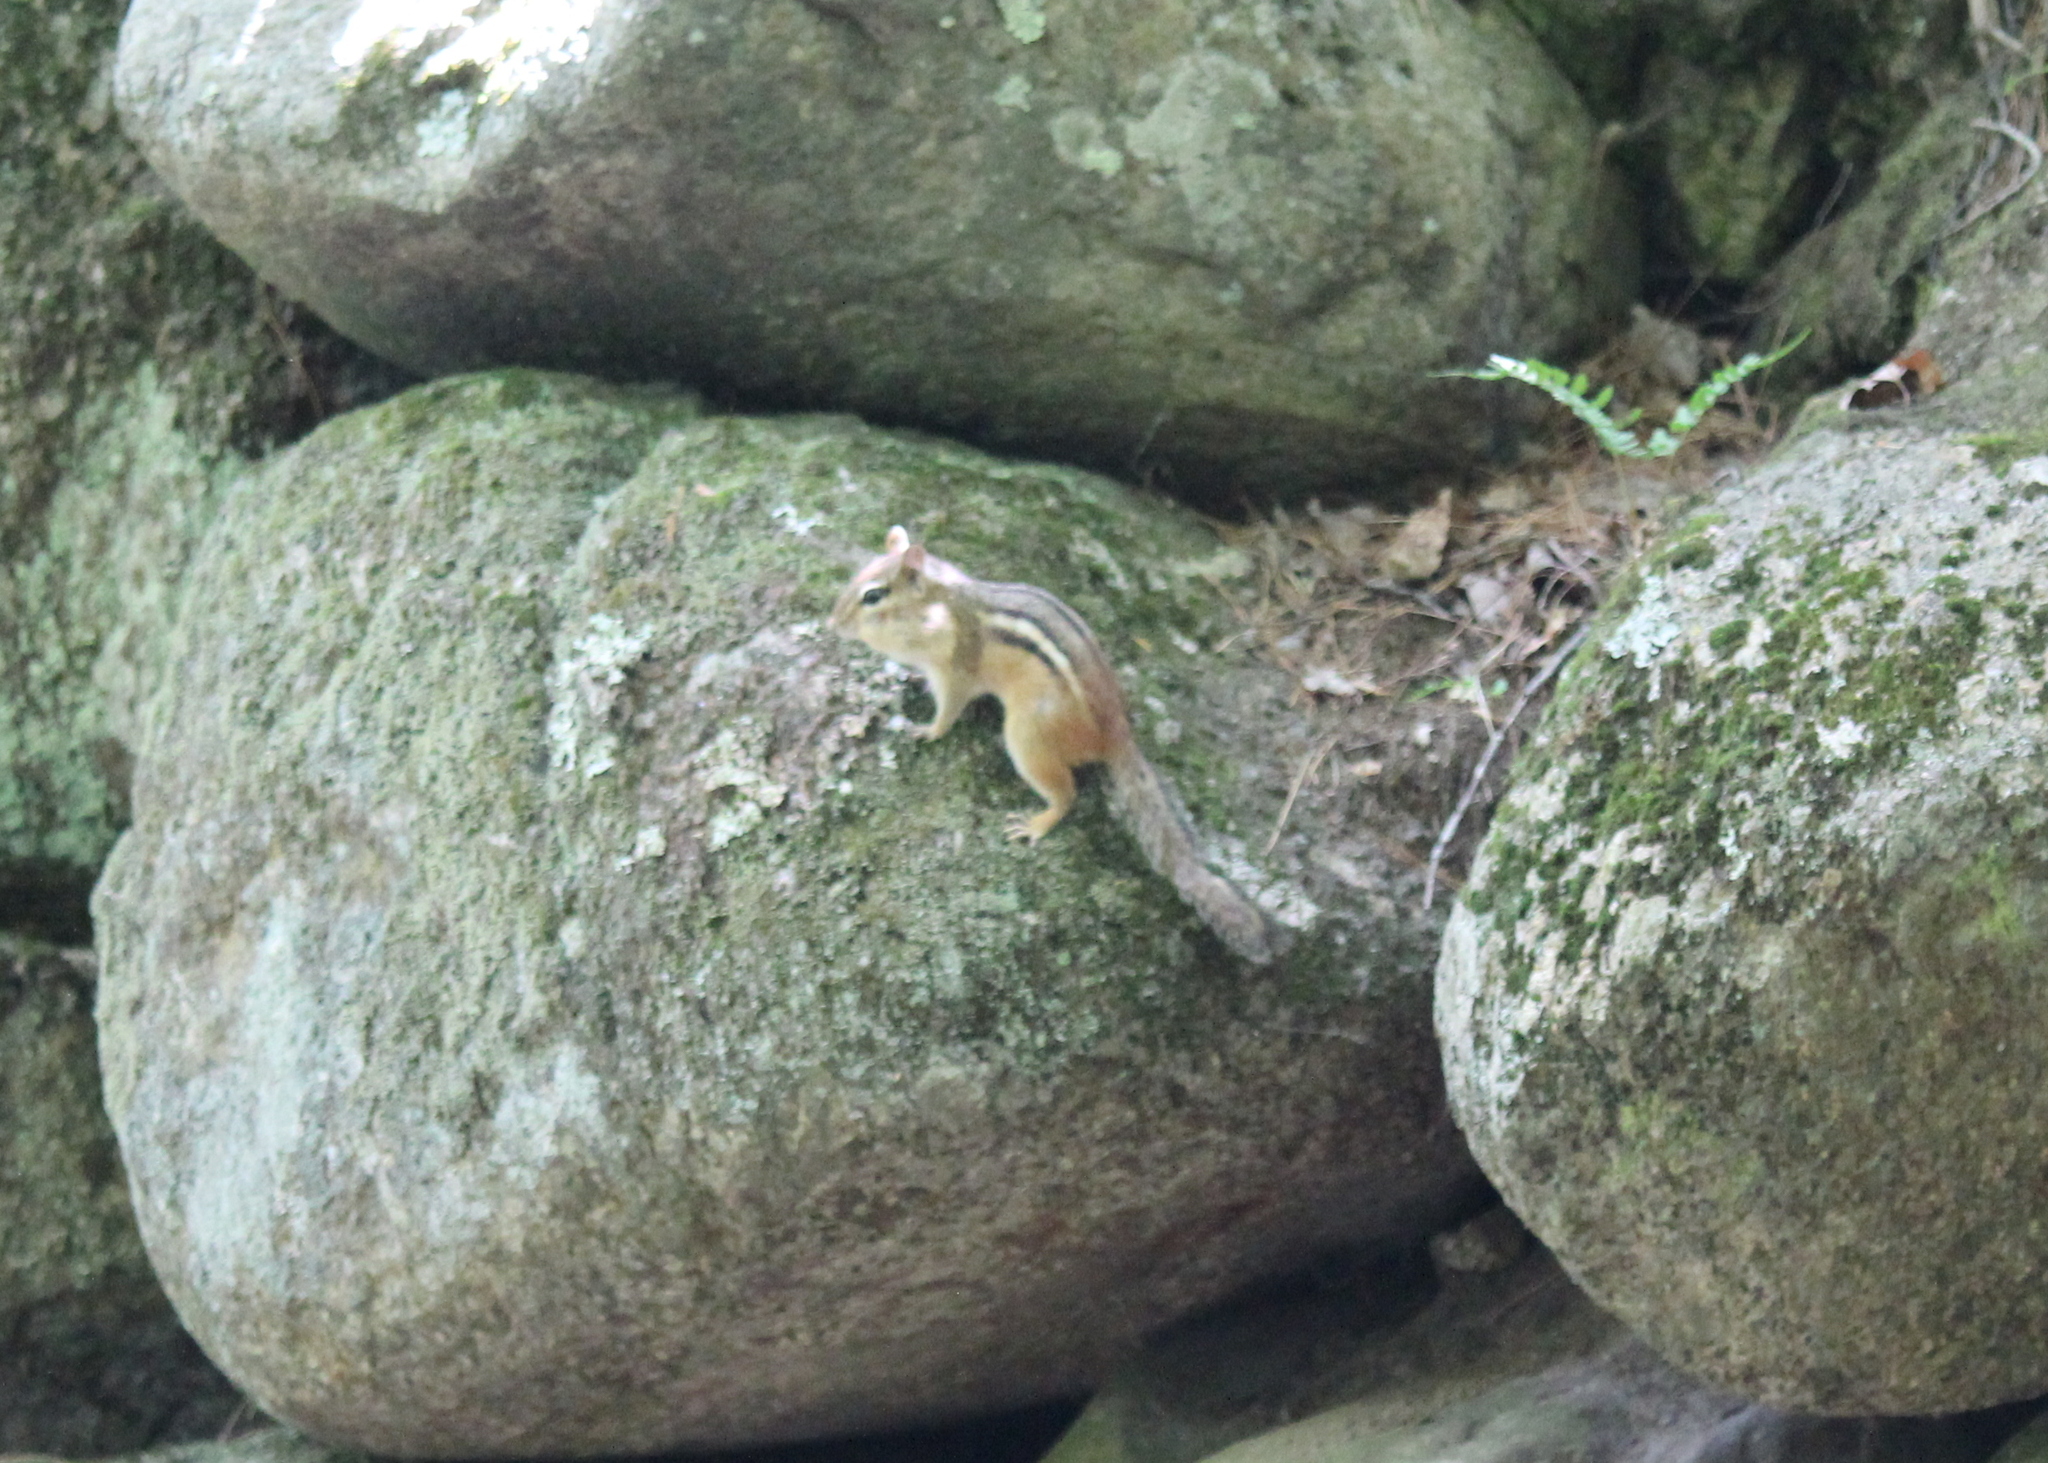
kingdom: Animalia
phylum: Chordata
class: Mammalia
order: Rodentia
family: Sciuridae
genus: Tamias
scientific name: Tamias striatus
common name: Eastern chipmunk
